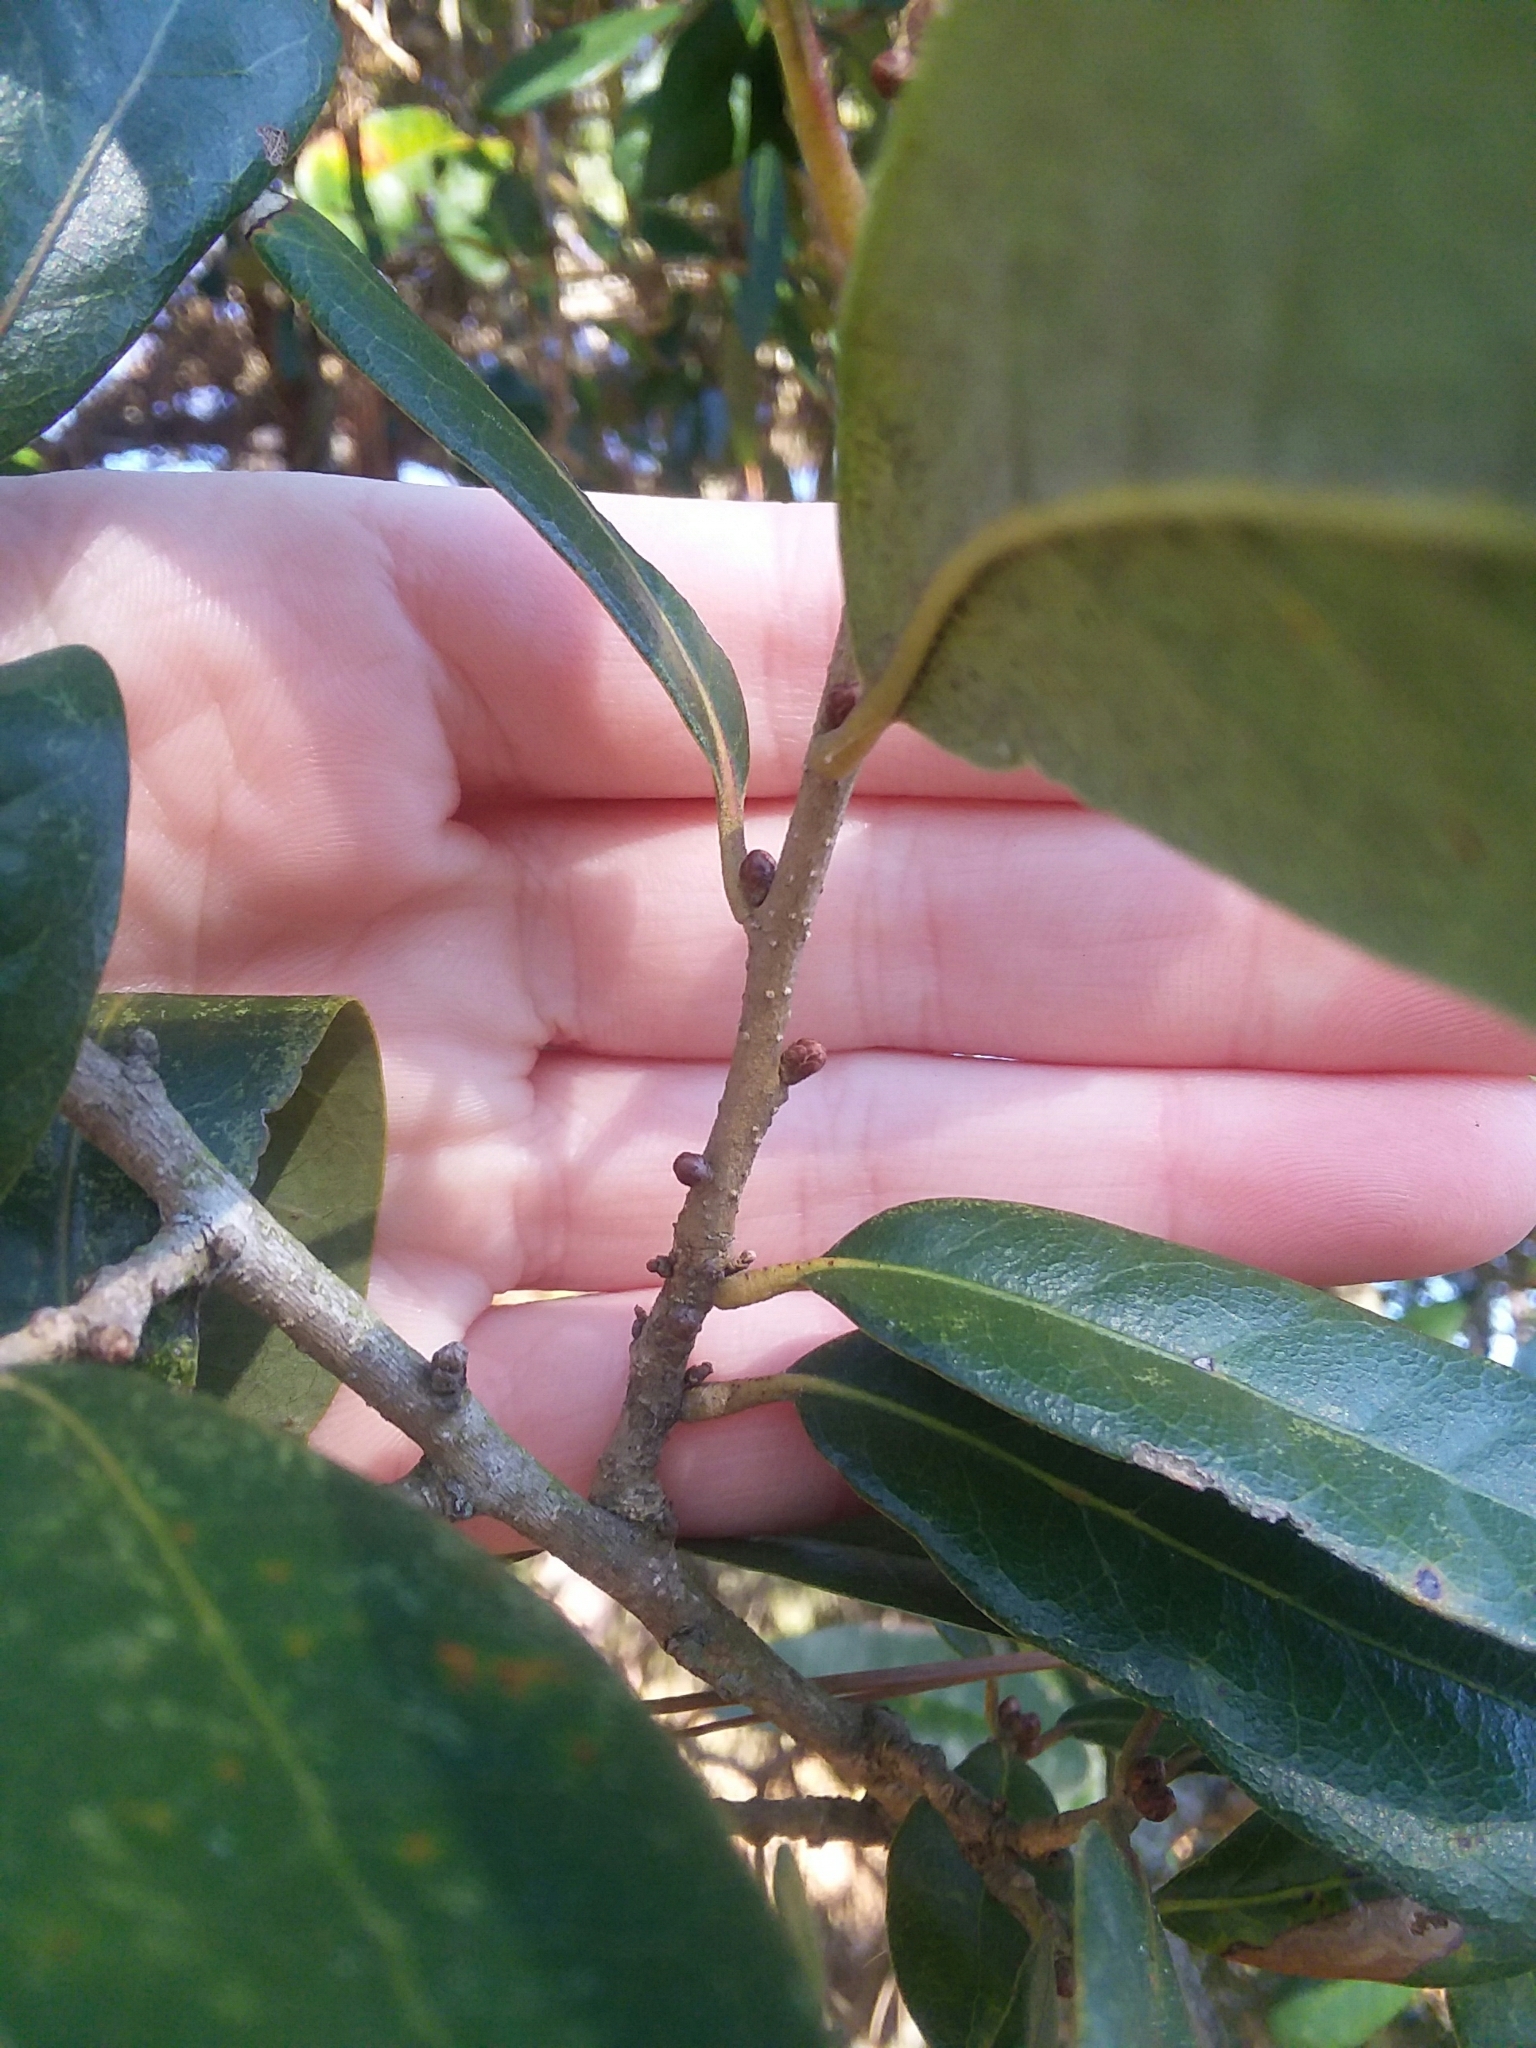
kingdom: Plantae
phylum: Tracheophyta
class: Magnoliopsida
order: Fagales
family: Fagaceae
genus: Quercus
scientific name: Quercus virginiana
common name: Southern live oak
